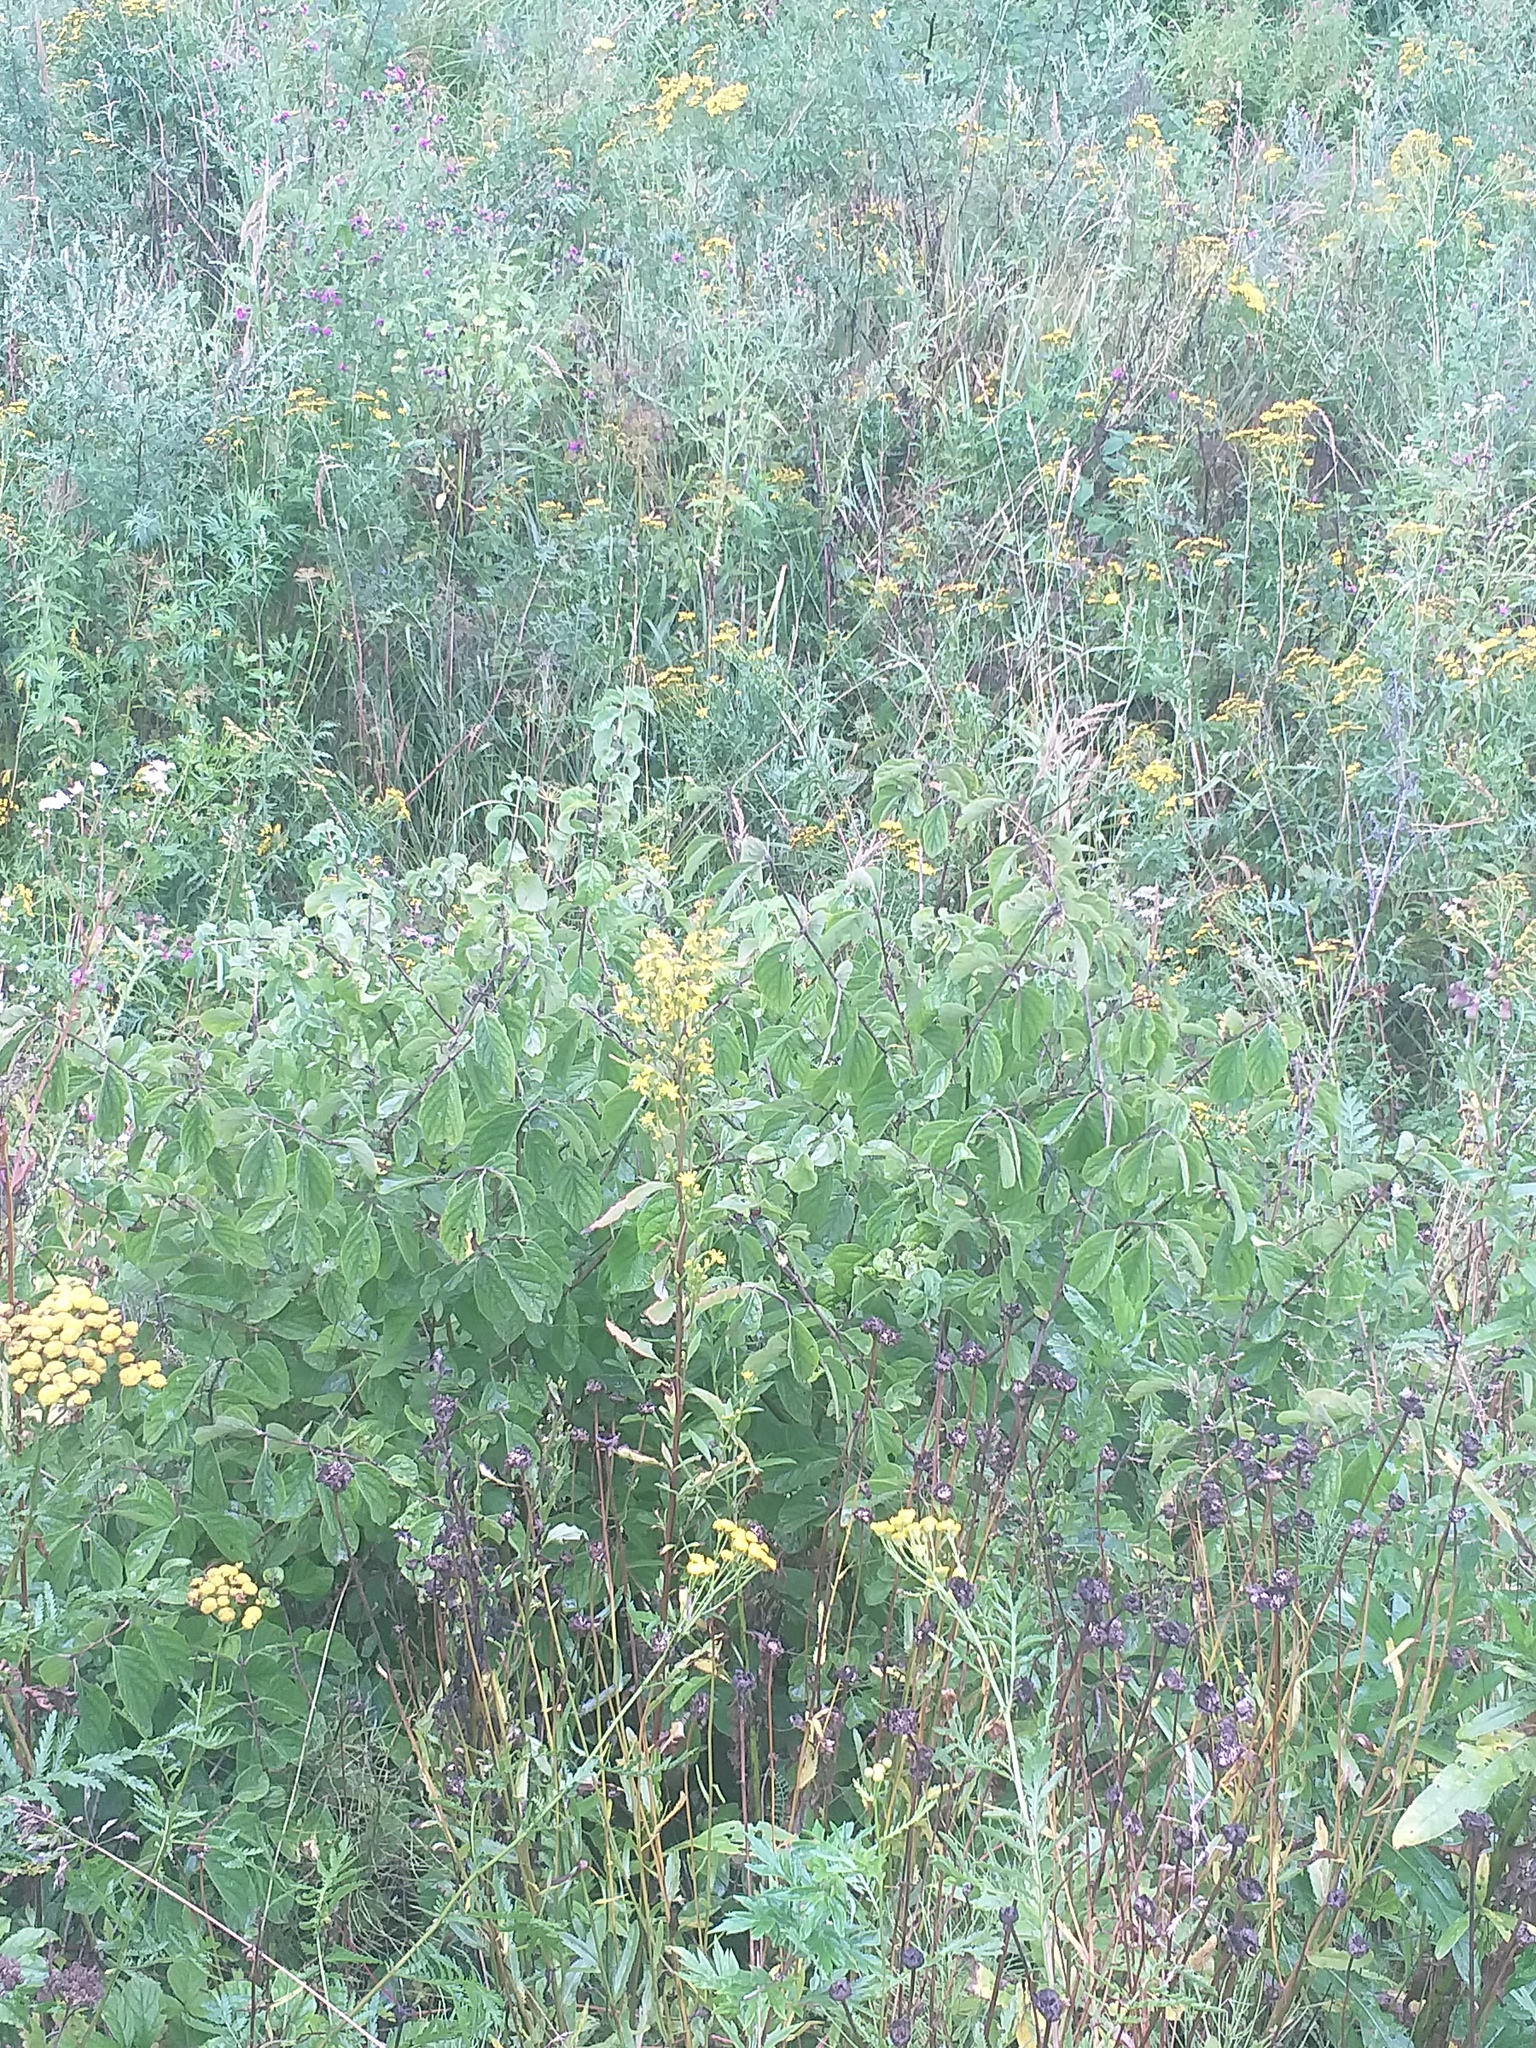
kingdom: Plantae
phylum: Tracheophyta
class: Magnoliopsida
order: Dipsacales
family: Caprifoliaceae
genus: Lonicera
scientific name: Lonicera xylosteum
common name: Fly honeysuckle
